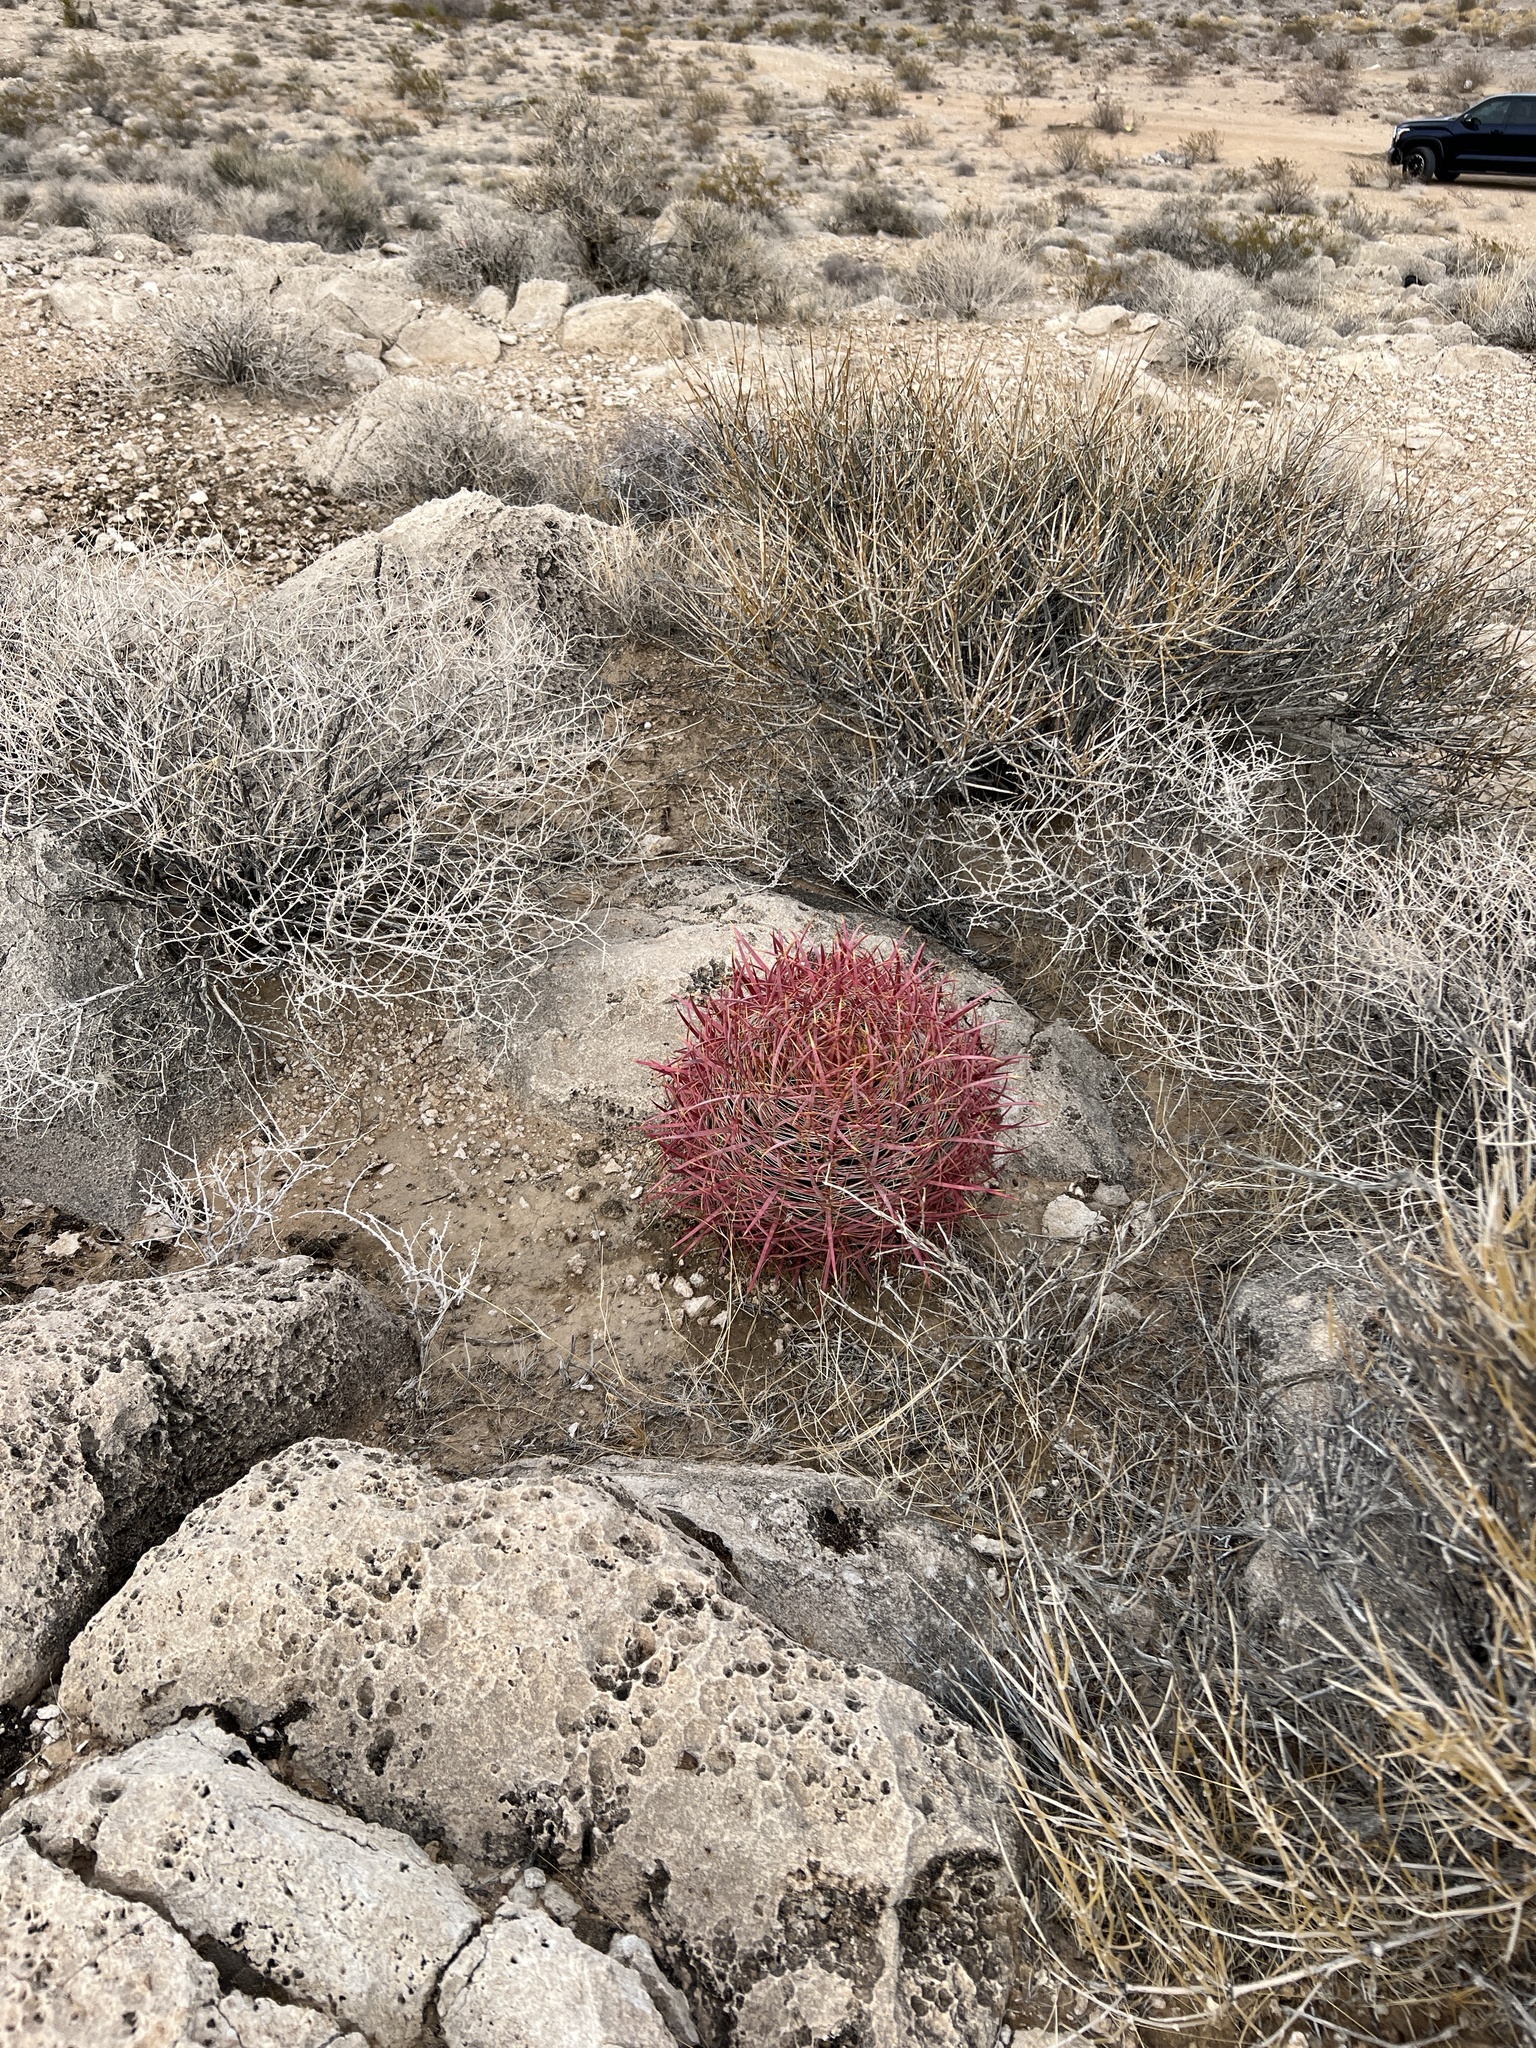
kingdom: Plantae
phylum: Tracheophyta
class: Magnoliopsida
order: Caryophyllales
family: Cactaceae
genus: Ferocactus
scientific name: Ferocactus cylindraceus
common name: California barrel cactus
